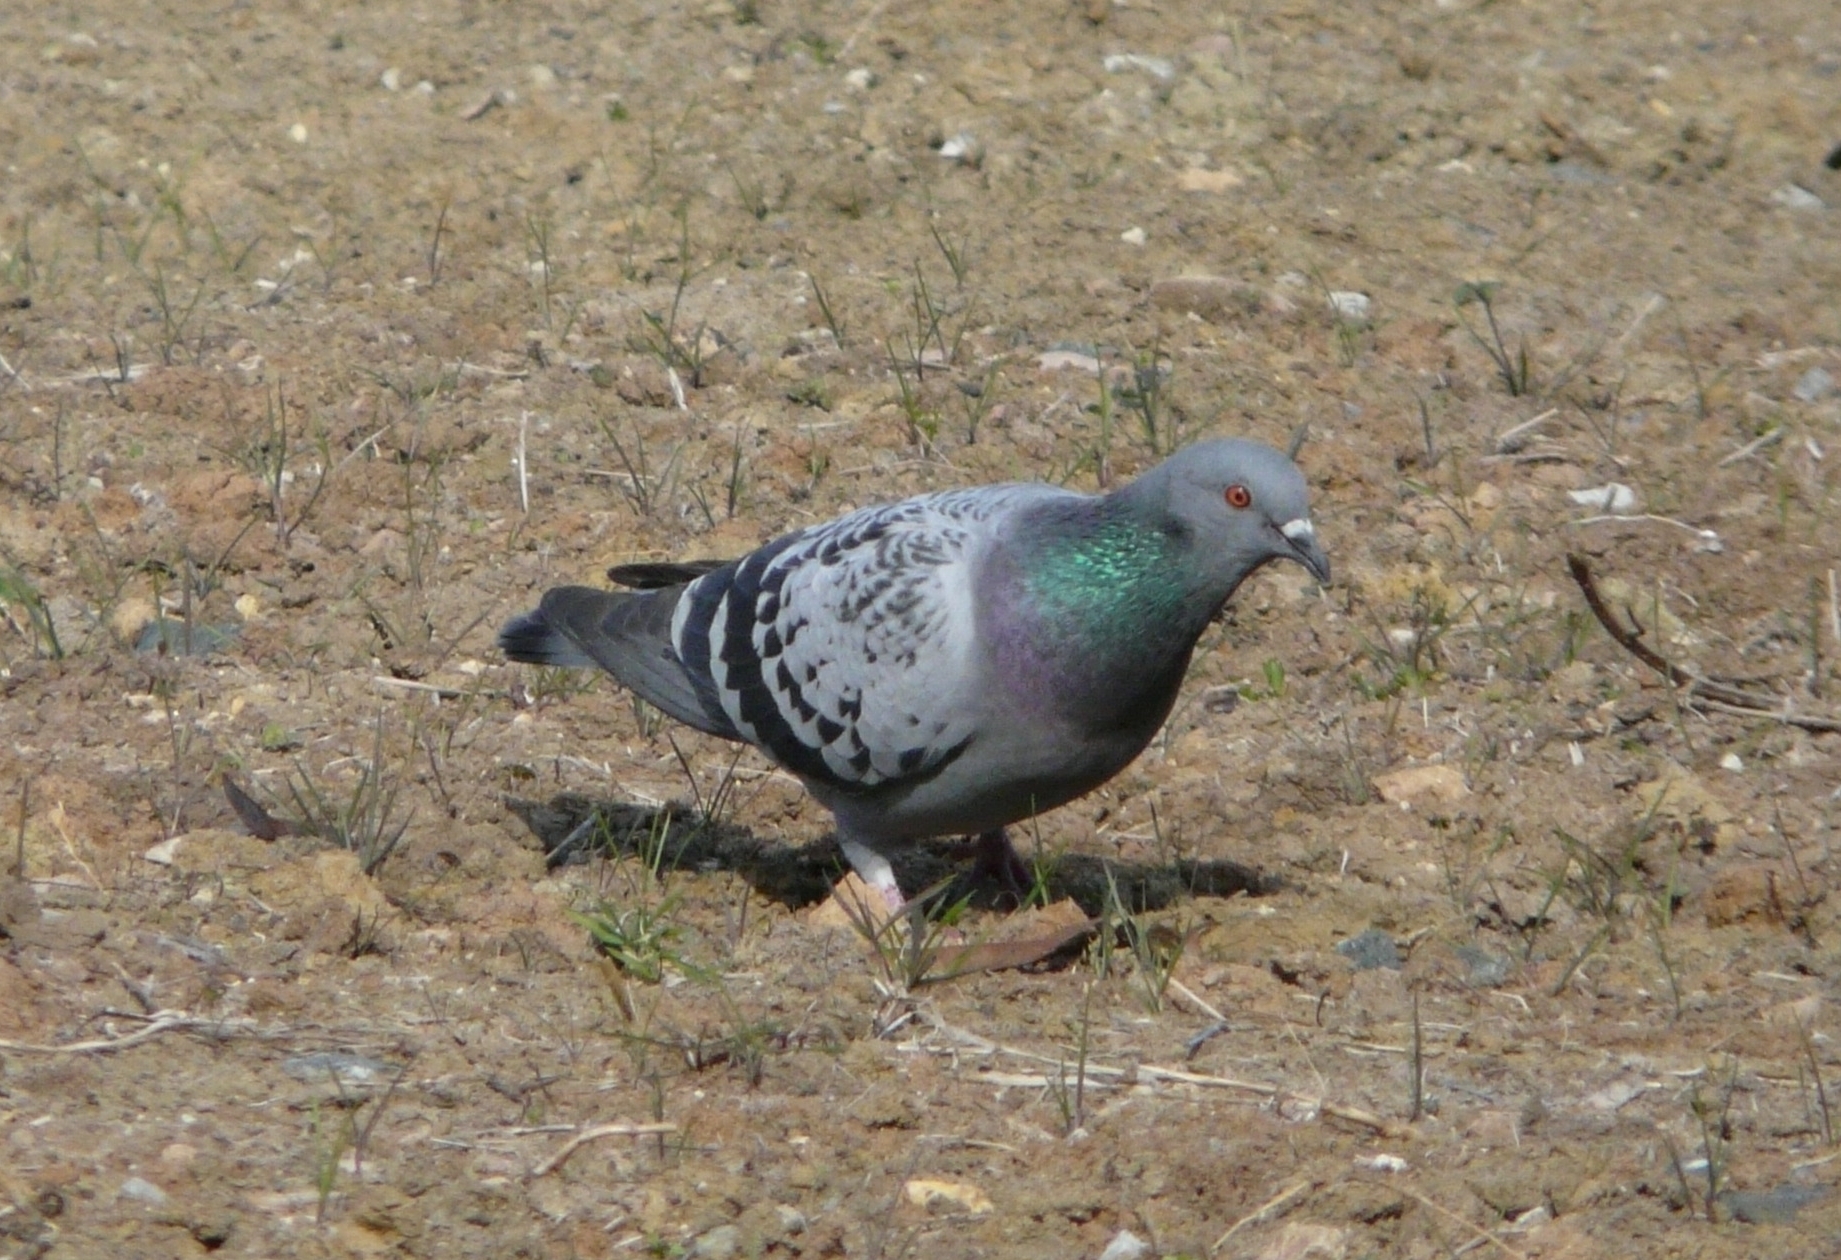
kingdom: Animalia
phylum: Chordata
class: Aves
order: Columbiformes
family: Columbidae
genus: Columba
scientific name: Columba livia
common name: Rock pigeon
